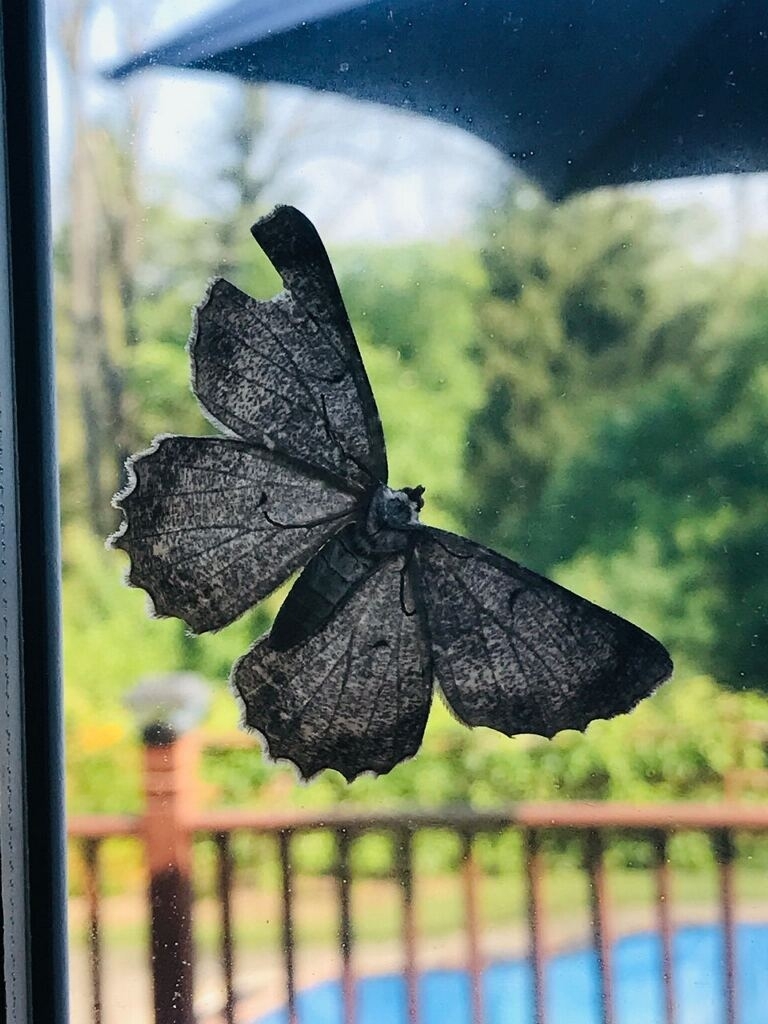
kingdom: Animalia
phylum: Arthropoda
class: Insecta
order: Lepidoptera
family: Geometridae
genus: Epimecis
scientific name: Epimecis hortaria
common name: Tulip-tree beauty
